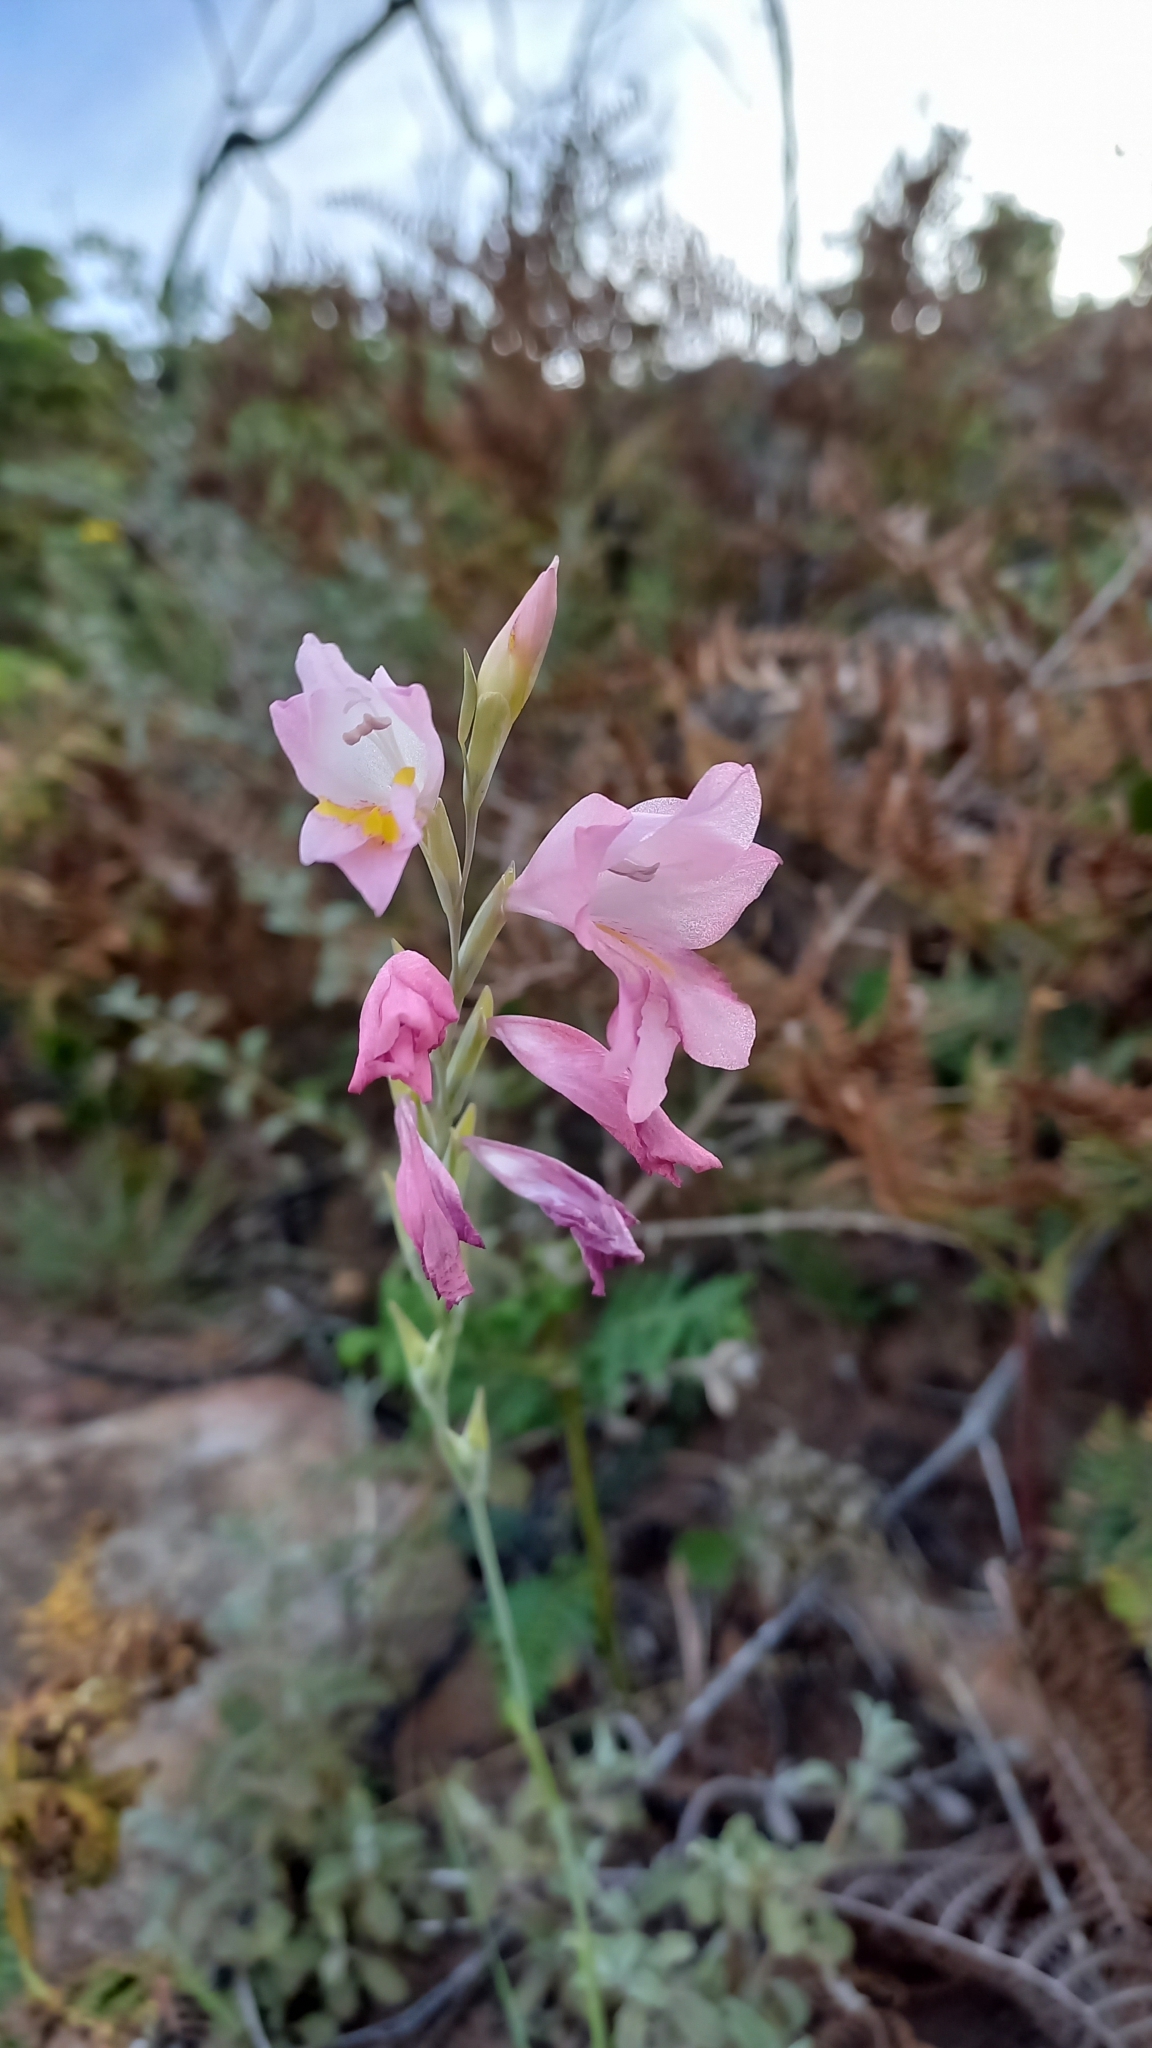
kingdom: Plantae
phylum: Tracheophyta
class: Liliopsida
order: Asparagales
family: Iridaceae
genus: Gladiolus
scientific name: Gladiolus brevifolius
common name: March pypie
